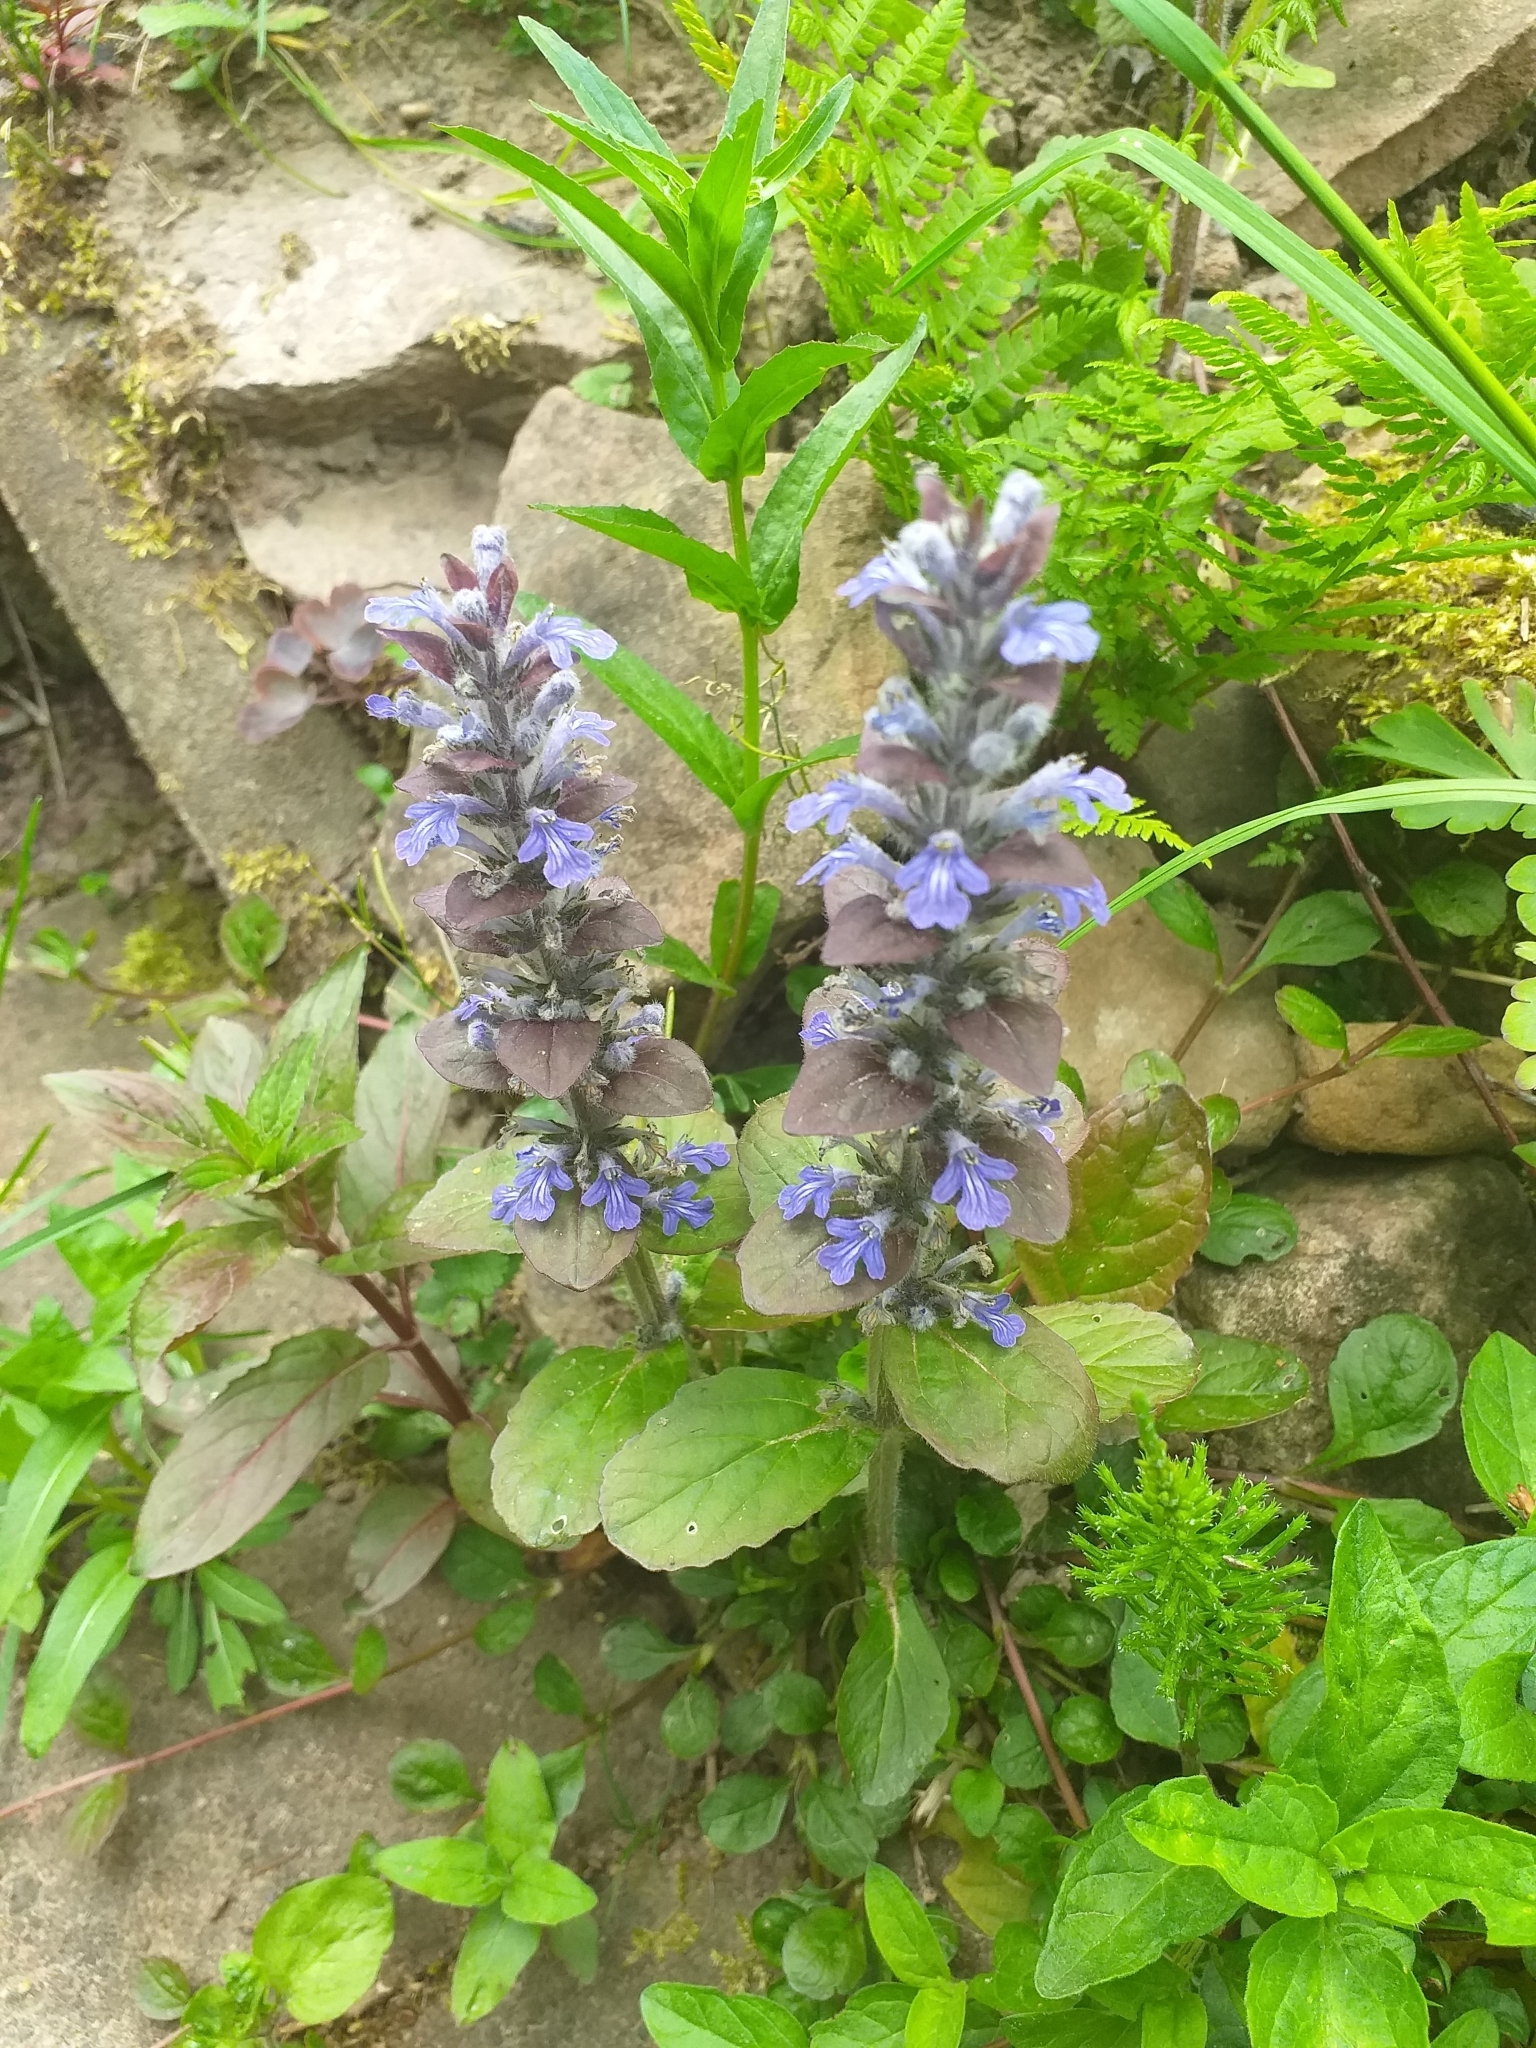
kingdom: Plantae
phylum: Tracheophyta
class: Magnoliopsida
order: Lamiales
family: Lamiaceae
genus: Ajuga
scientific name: Ajuga reptans
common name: Bugle
